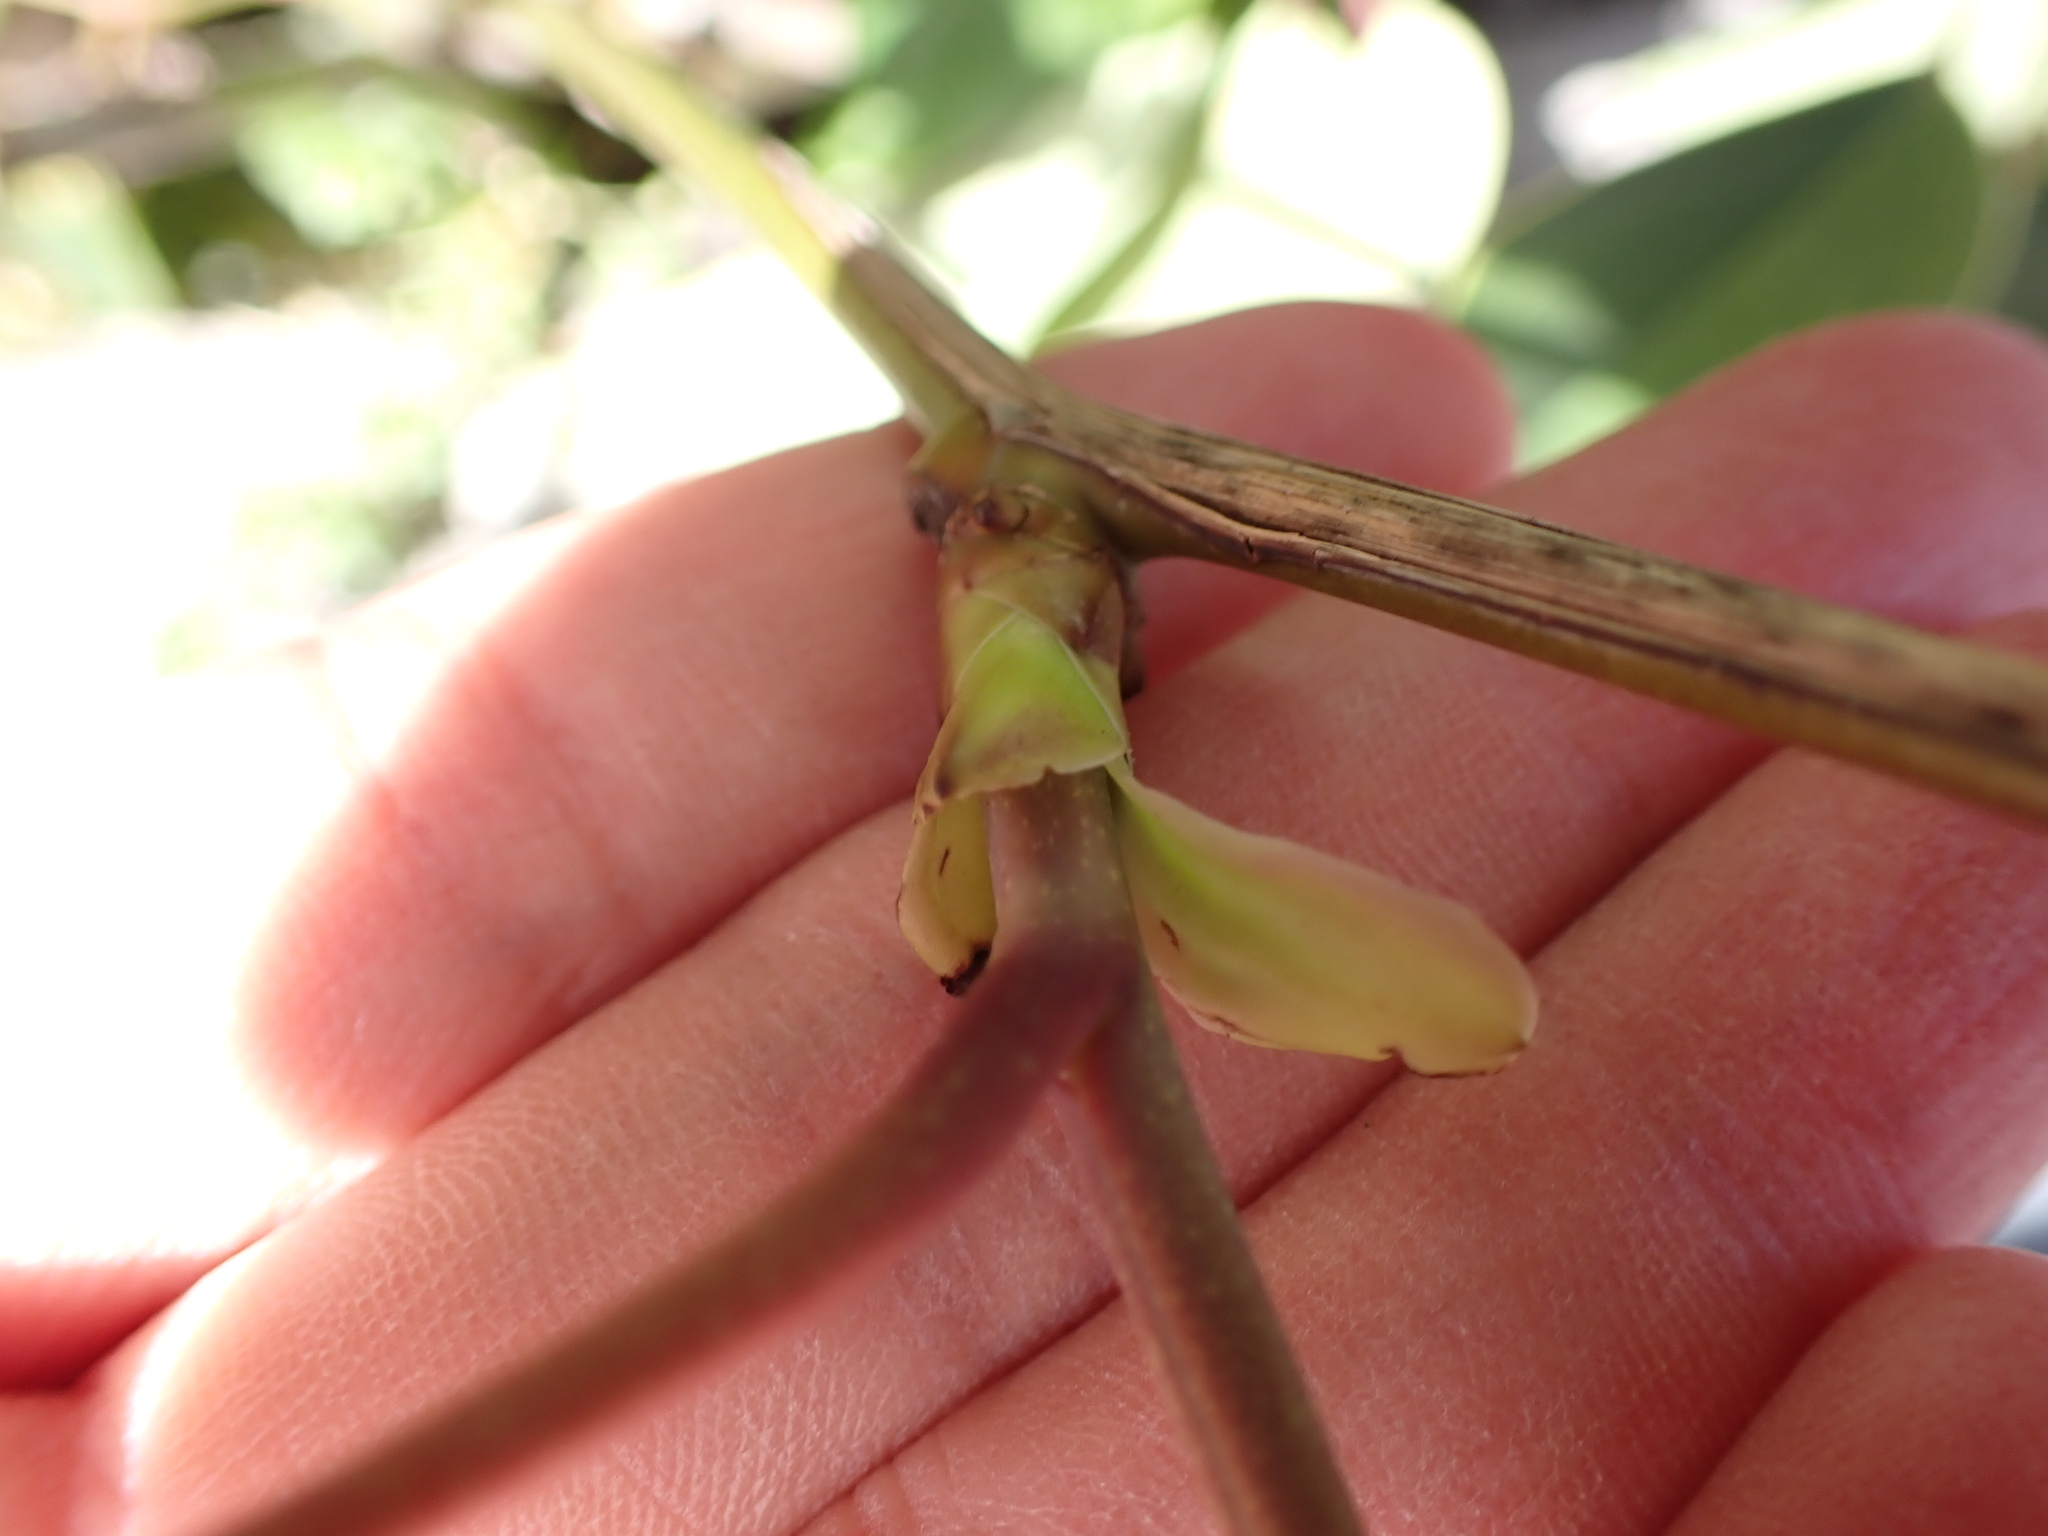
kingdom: Plantae
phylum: Tracheophyta
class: Magnoliopsida
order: Ranunculales
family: Lardizabalaceae
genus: Stauntonia
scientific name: Stauntonia hexaphylla
